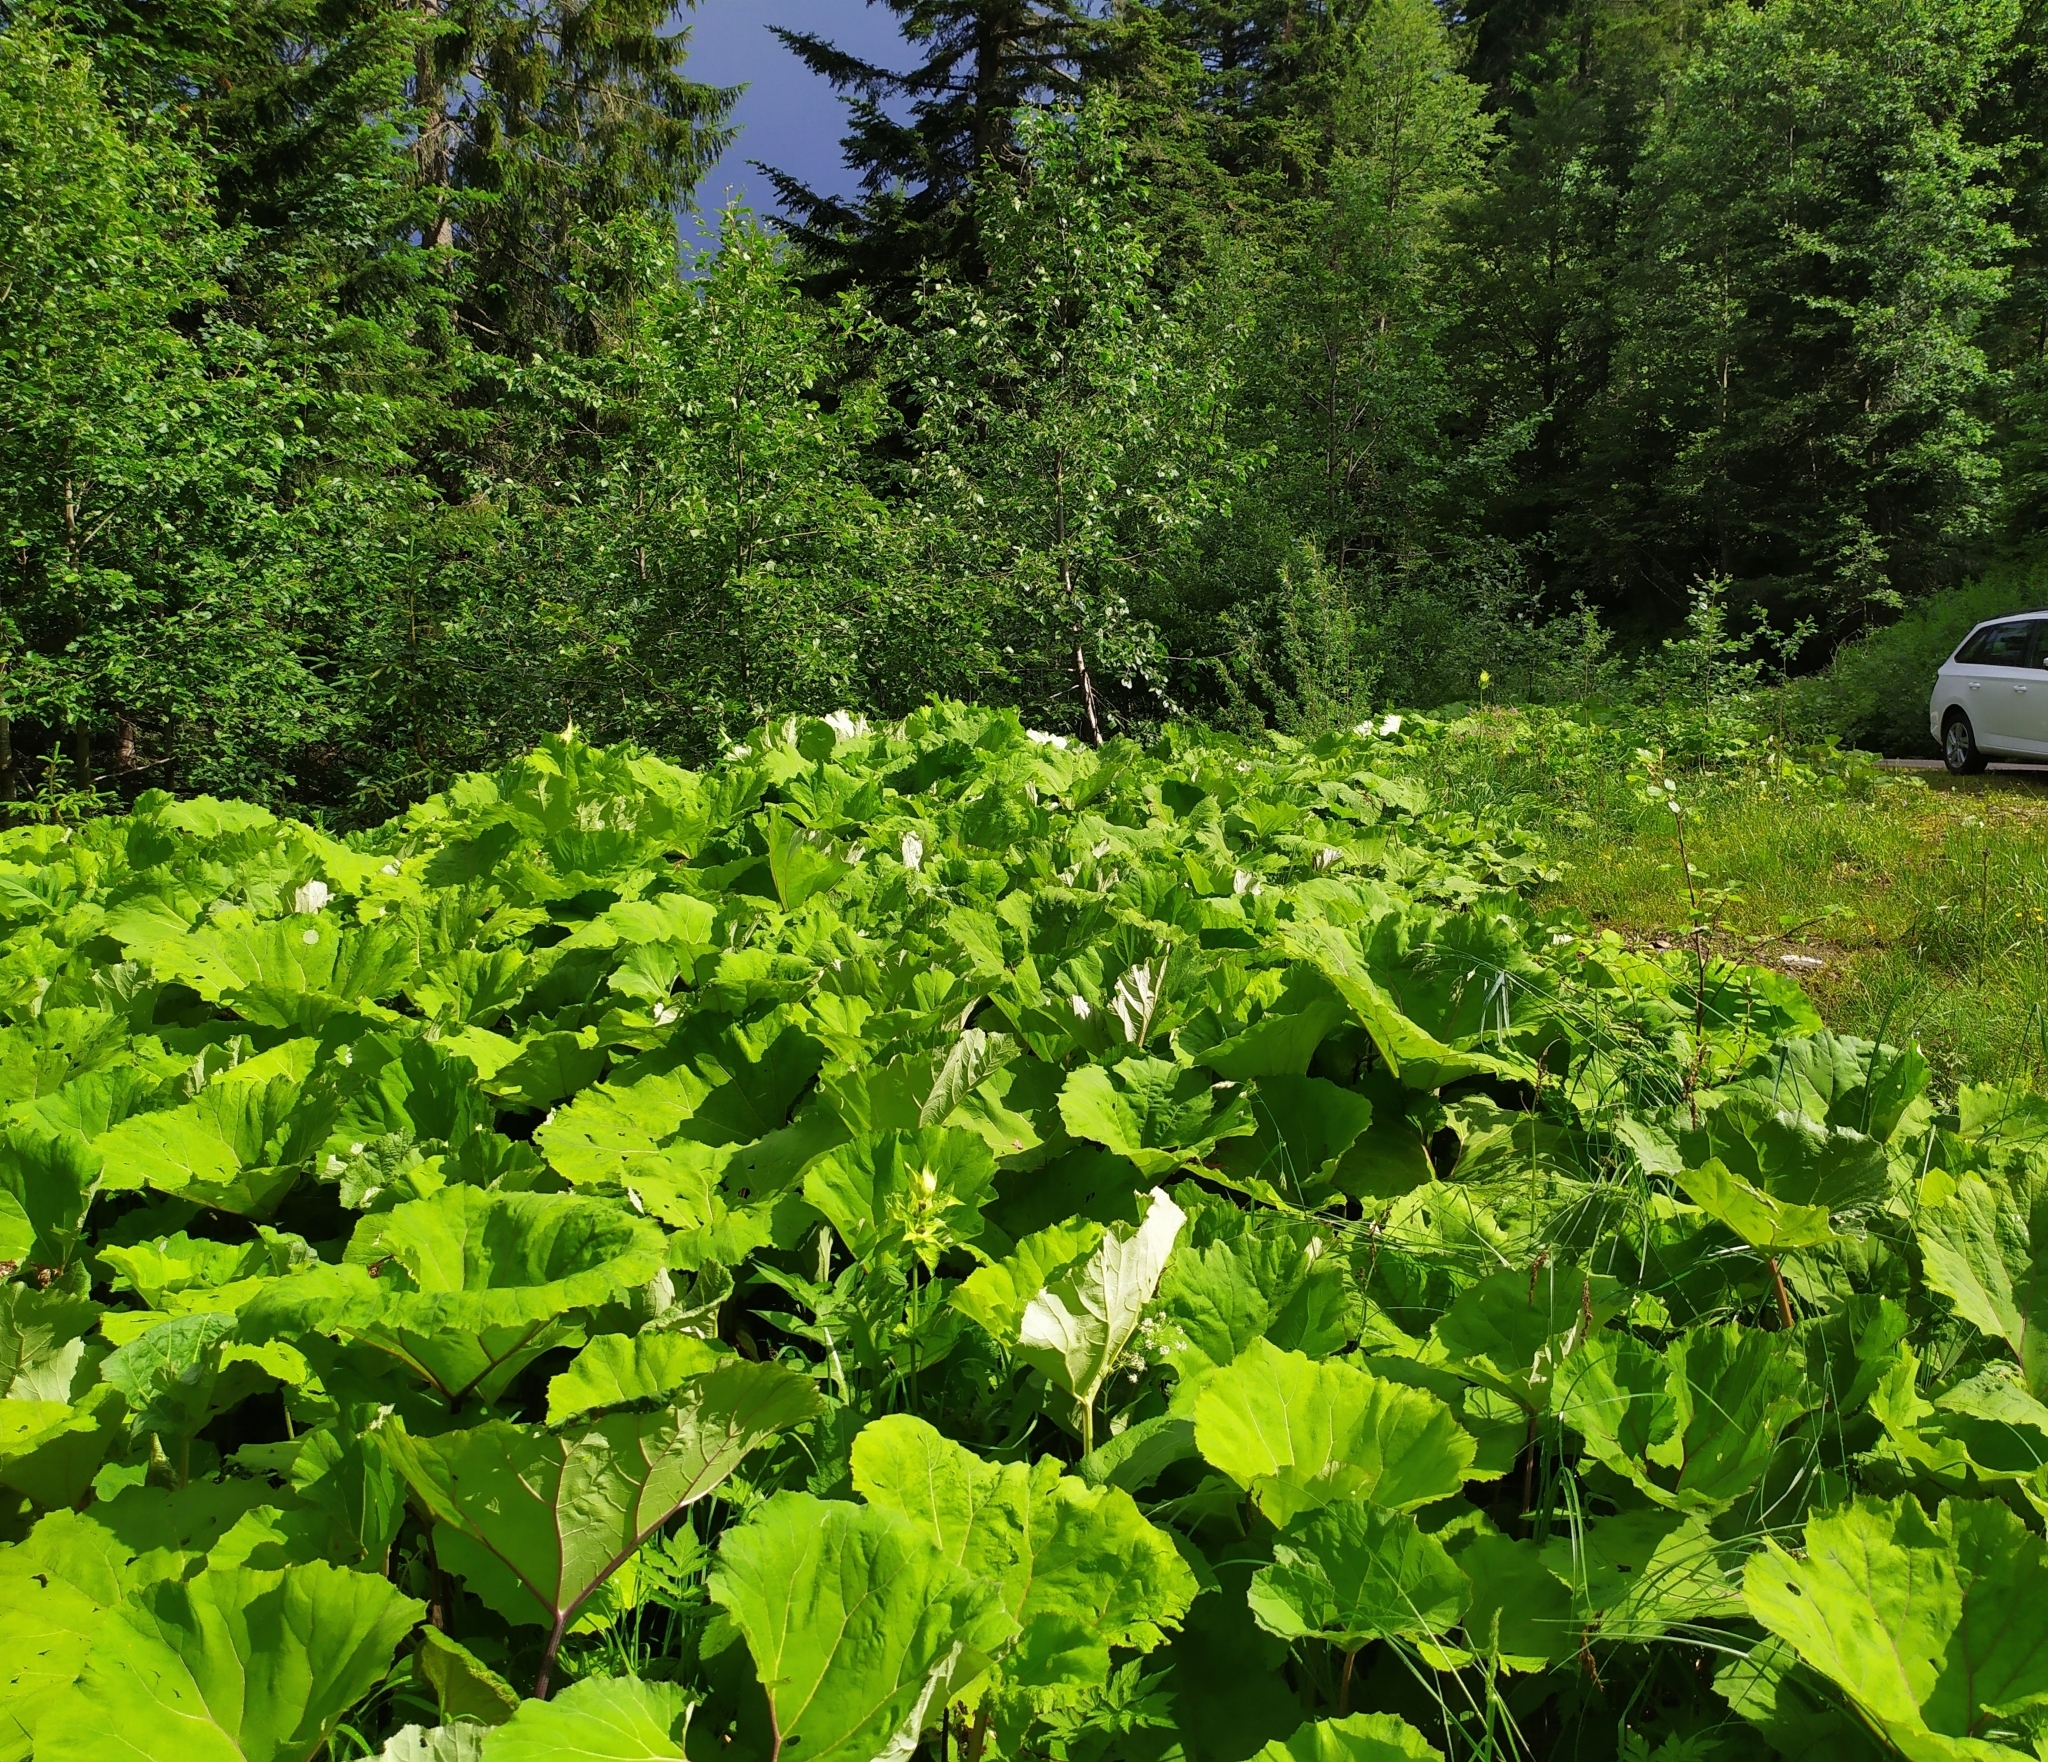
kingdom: Plantae
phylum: Tracheophyta
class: Magnoliopsida
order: Asterales
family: Asteraceae
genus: Petasites
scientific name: Petasites hybridus
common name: Butterbur
